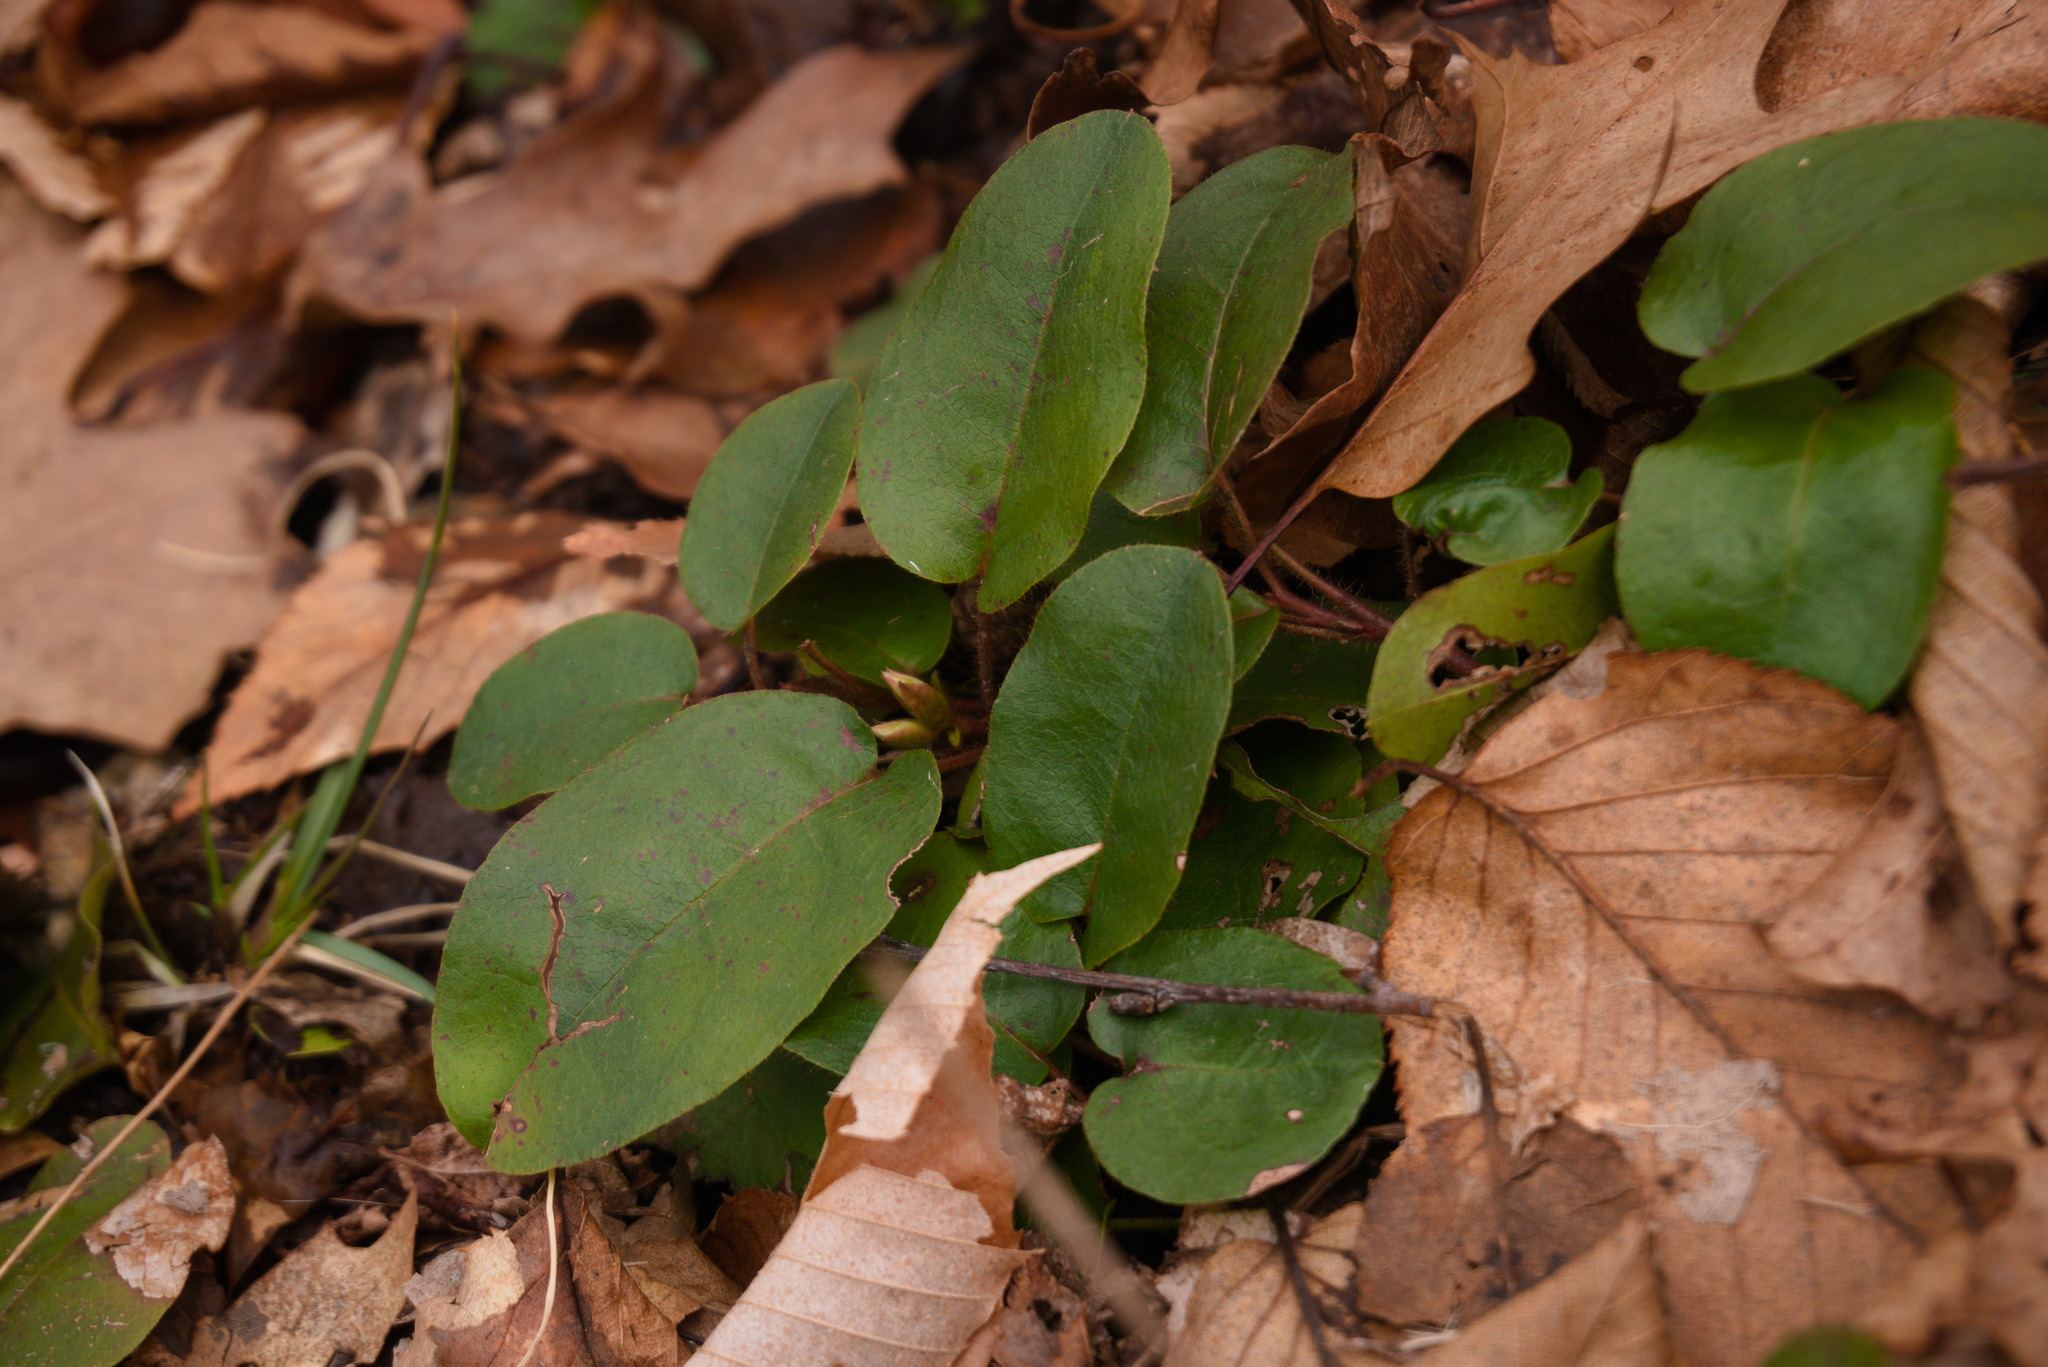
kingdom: Plantae
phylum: Tracheophyta
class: Magnoliopsida
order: Ericales
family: Ericaceae
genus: Epigaea
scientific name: Epigaea repens
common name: Gravelroot
